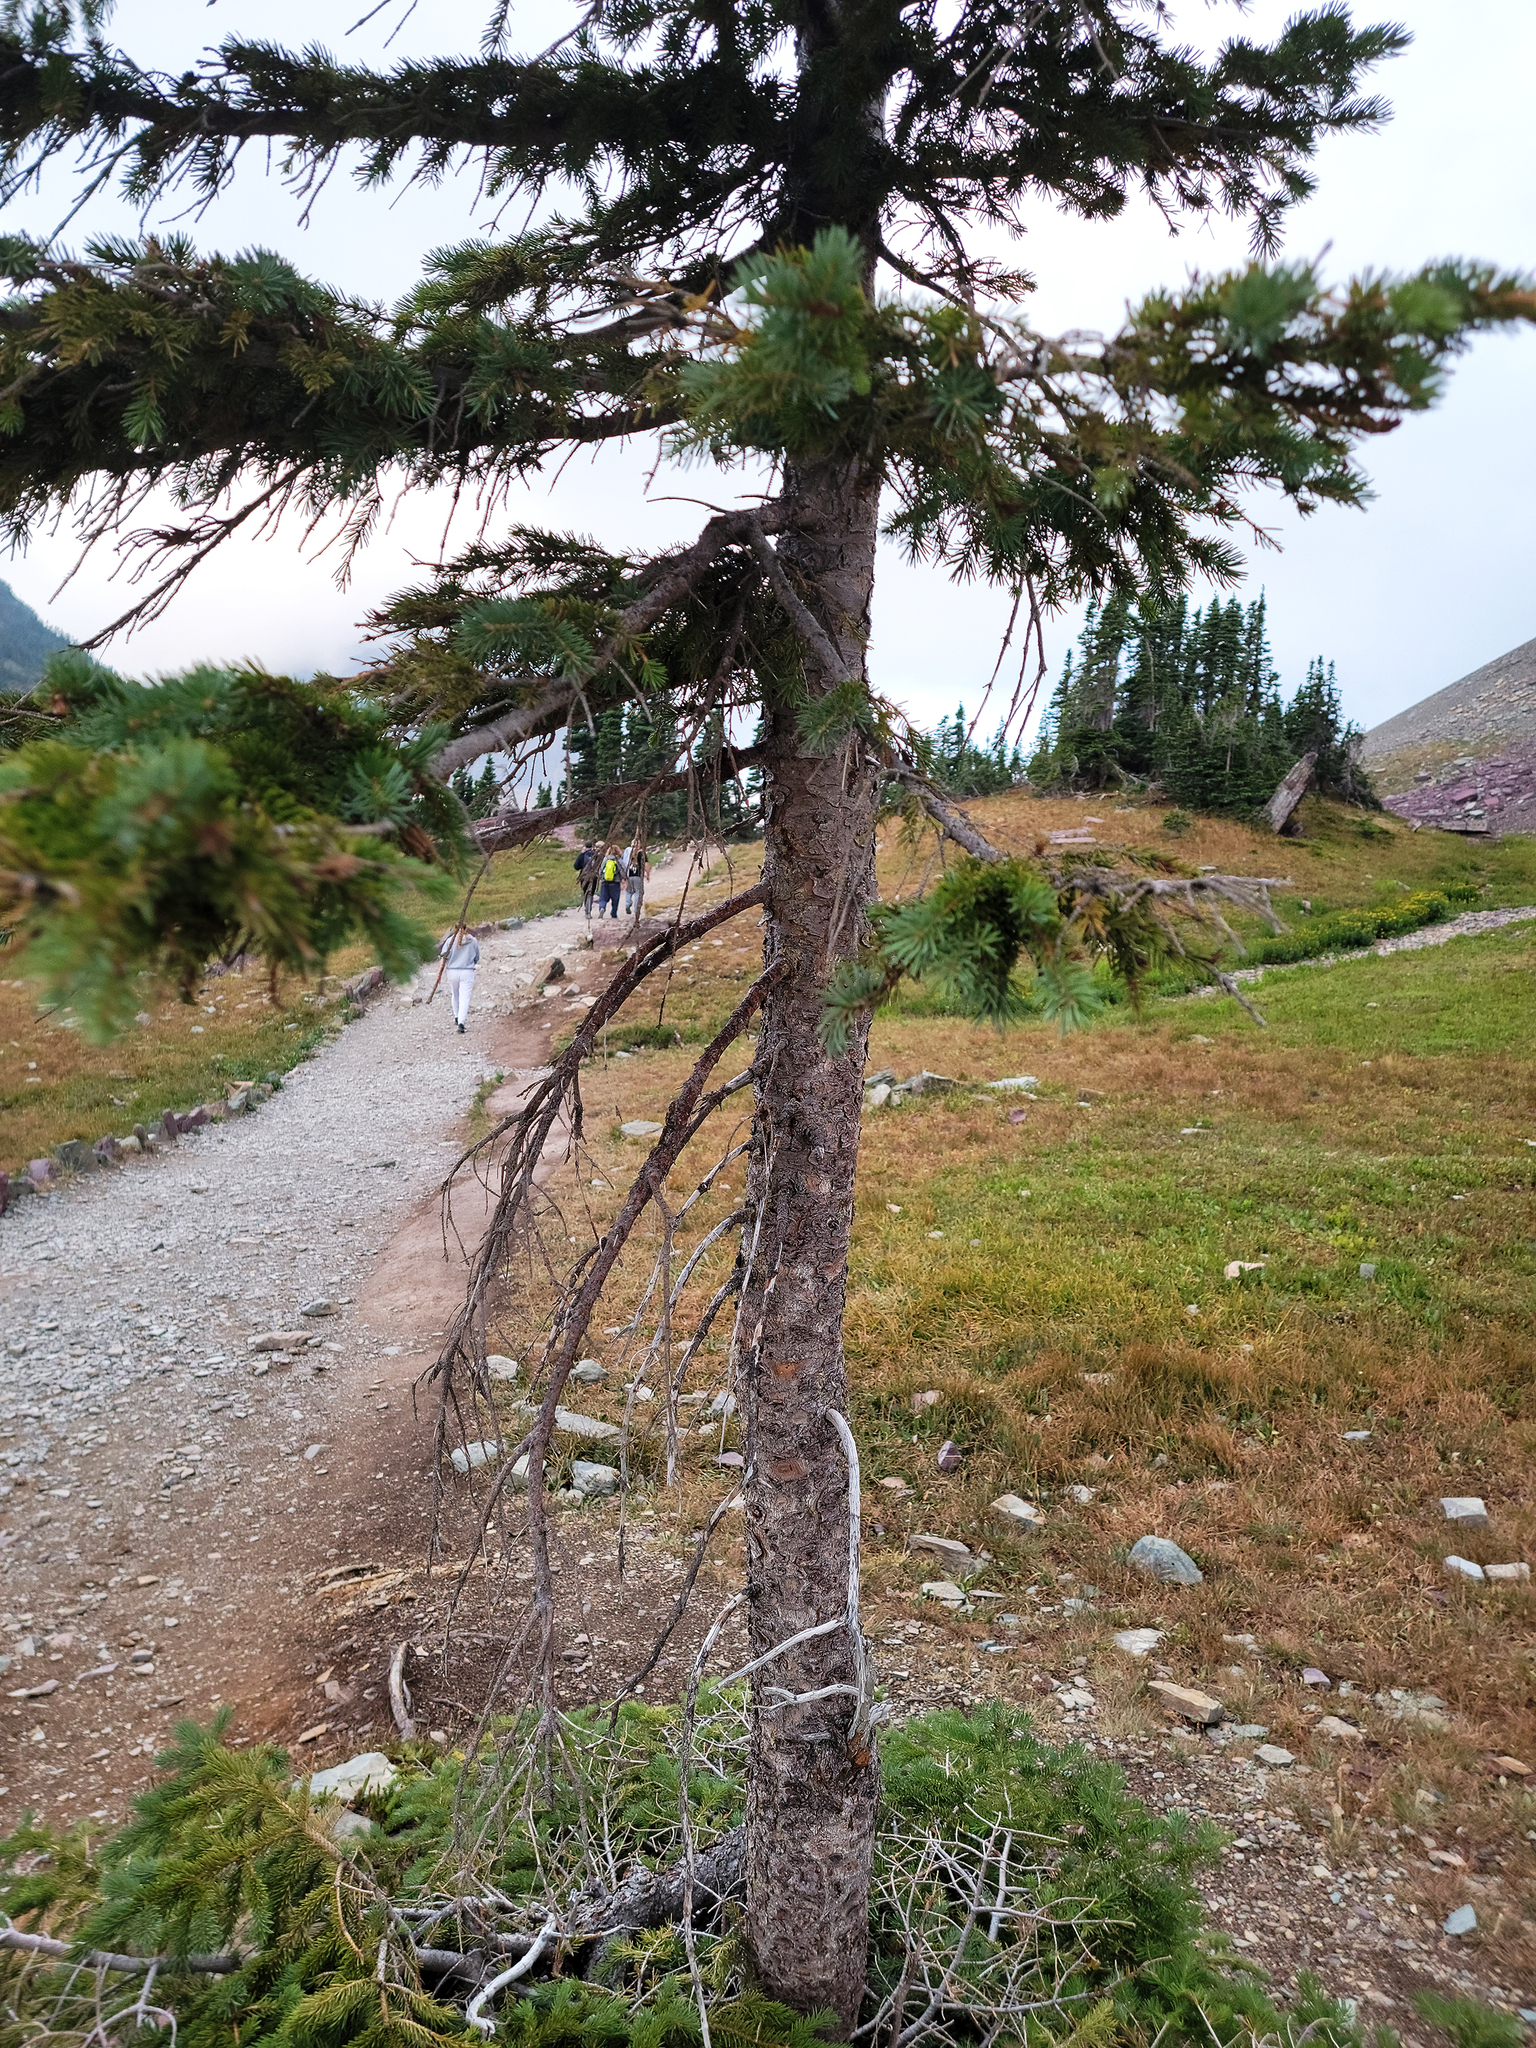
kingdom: Plantae
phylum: Tracheophyta
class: Pinopsida
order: Pinales
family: Pinaceae
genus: Picea
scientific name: Picea engelmannii
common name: Engelmann spruce
